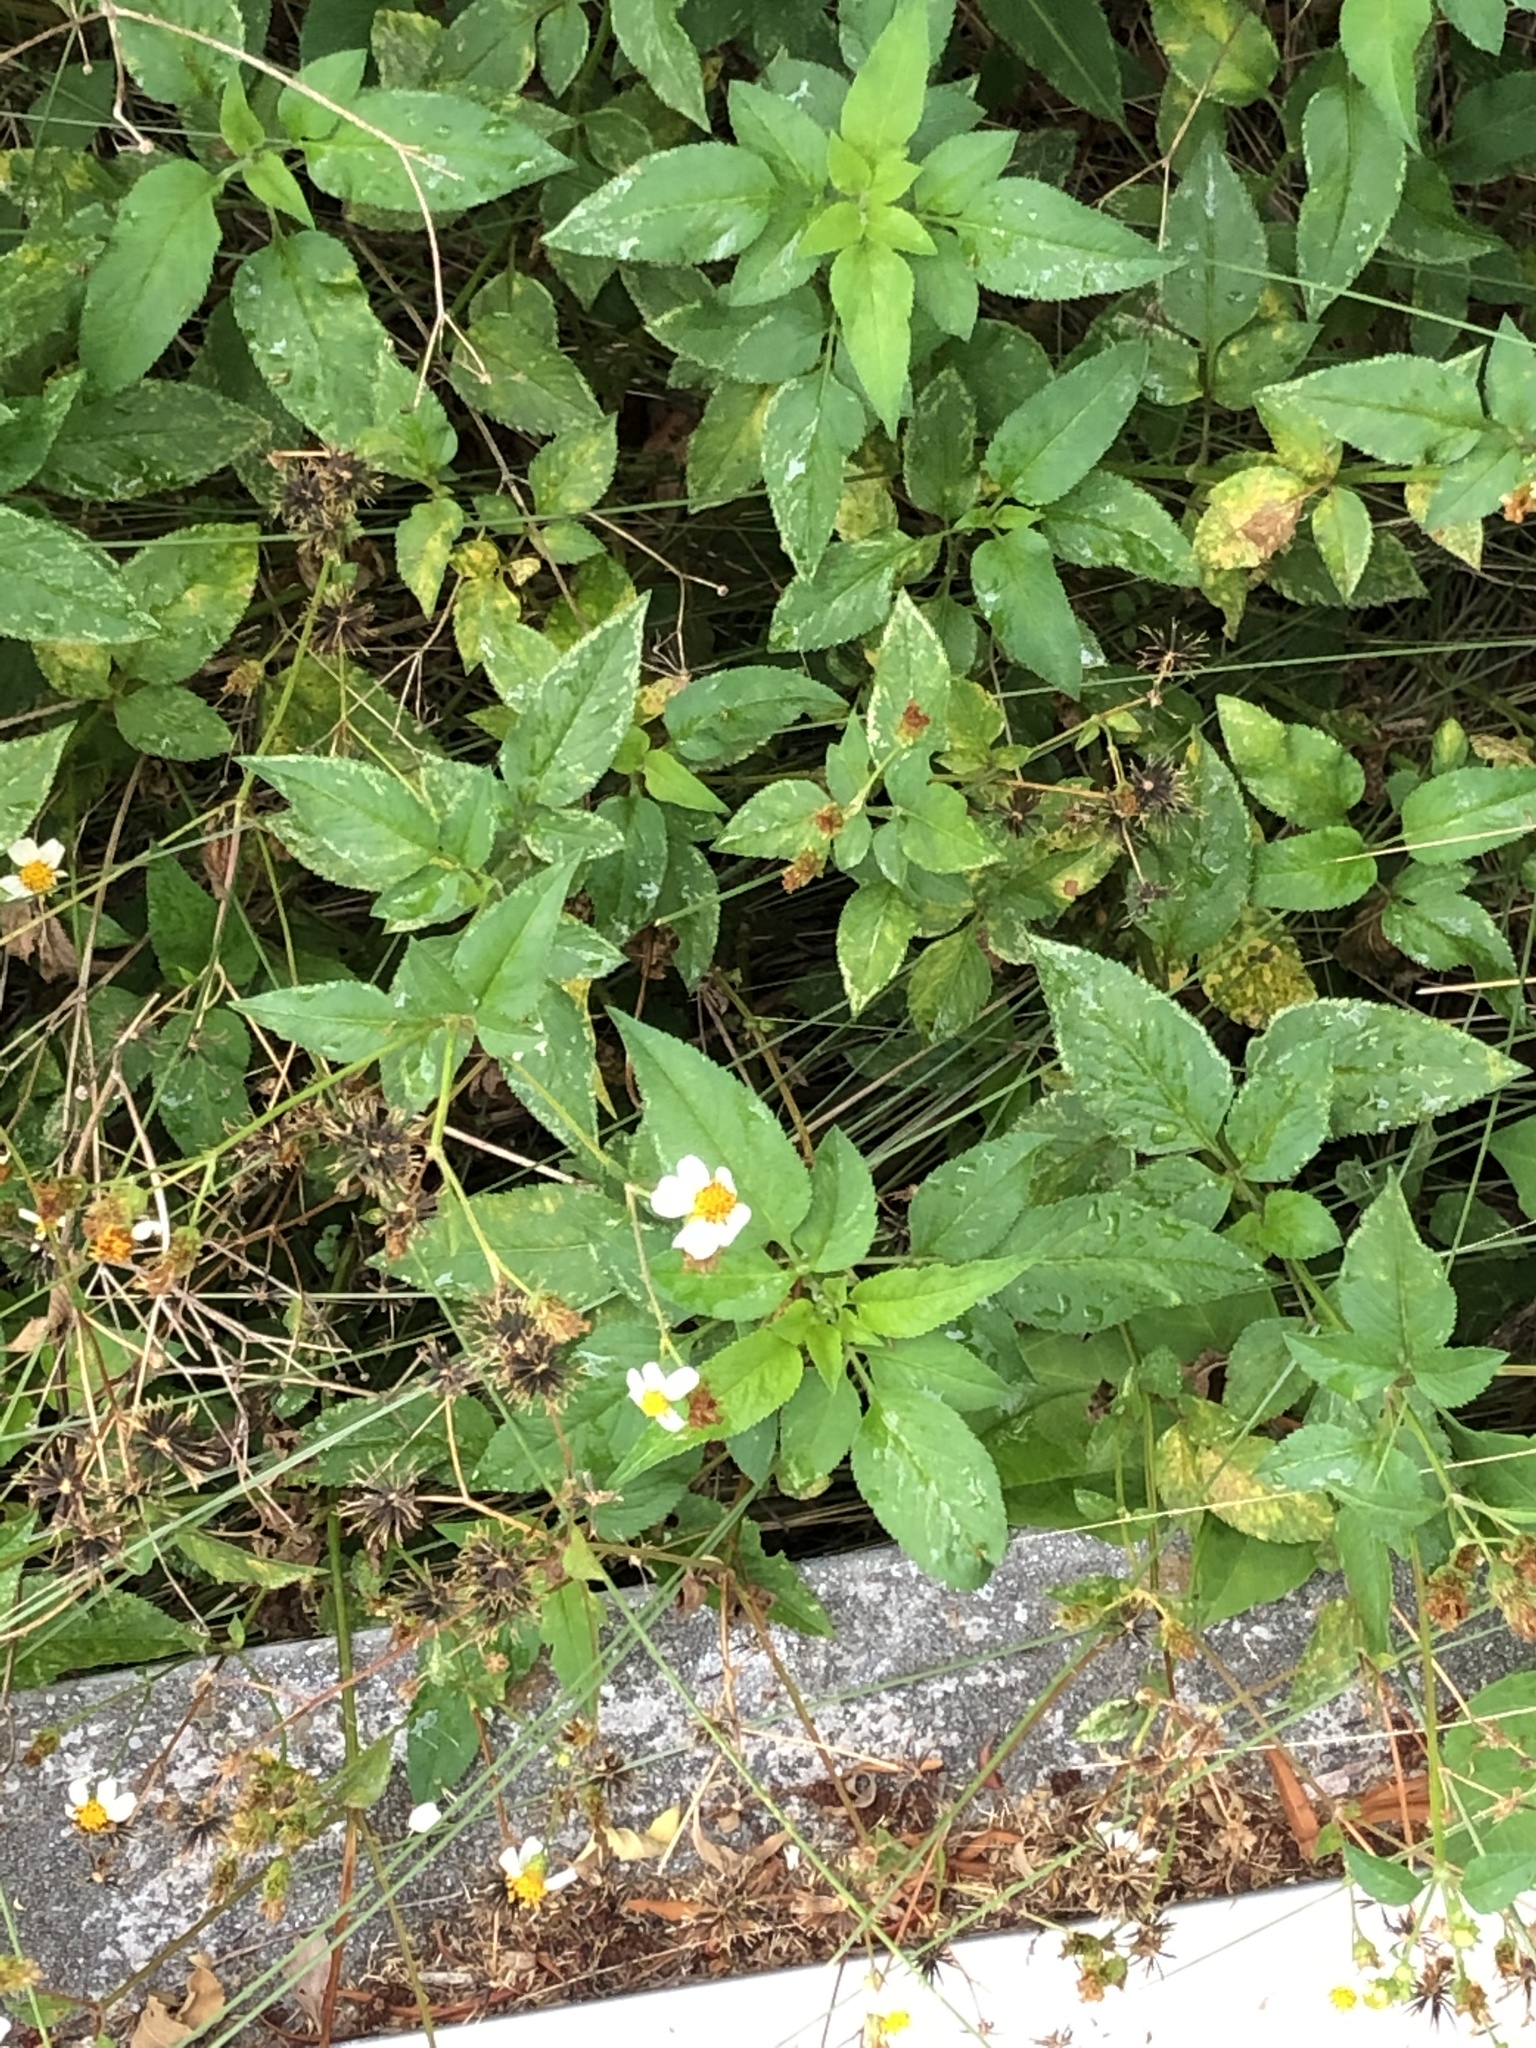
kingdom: Plantae
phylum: Tracheophyta
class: Magnoliopsida
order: Asterales
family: Asteraceae
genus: Bidens
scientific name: Bidens alba
